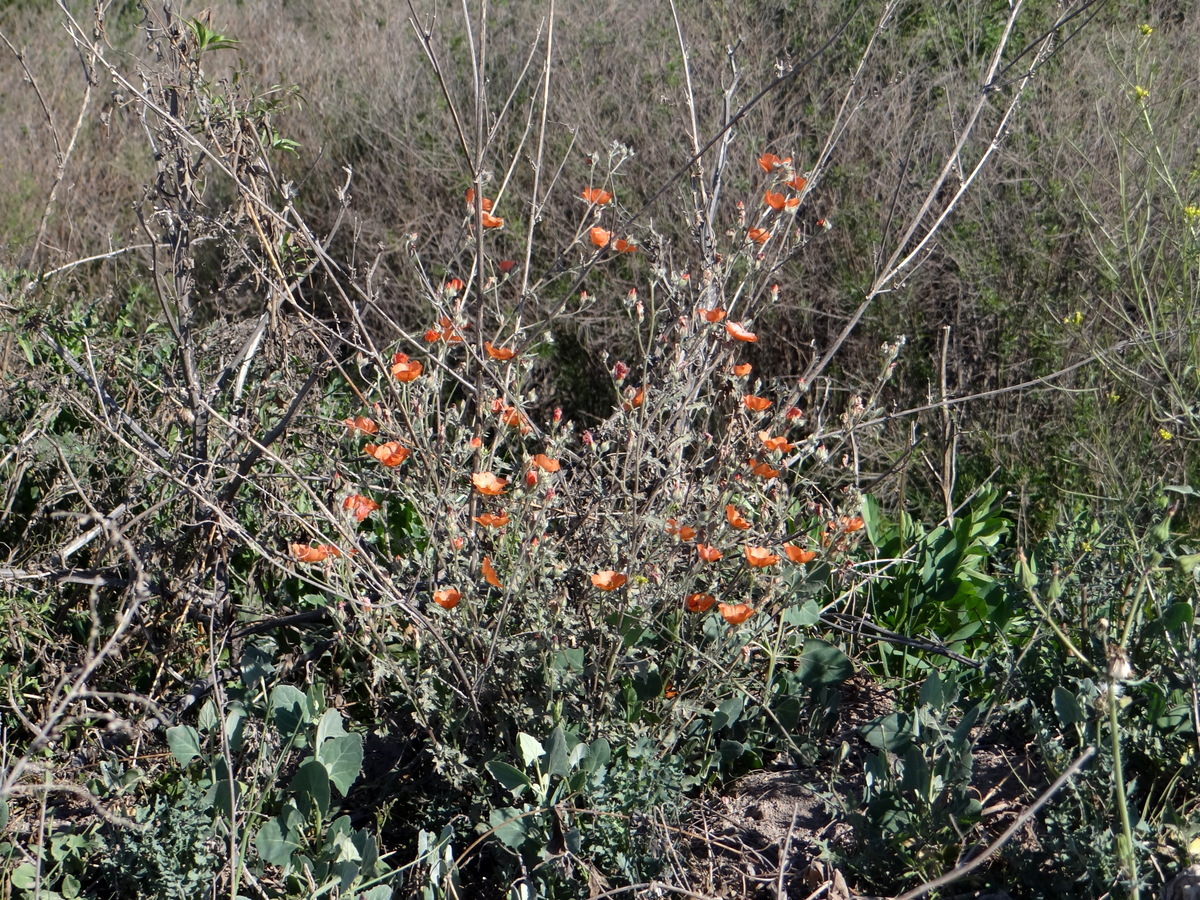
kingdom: Plantae
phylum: Tracheophyta
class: Magnoliopsida
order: Malvales
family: Malvaceae
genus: Sphaeralcea
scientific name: Sphaeralcea miniata
